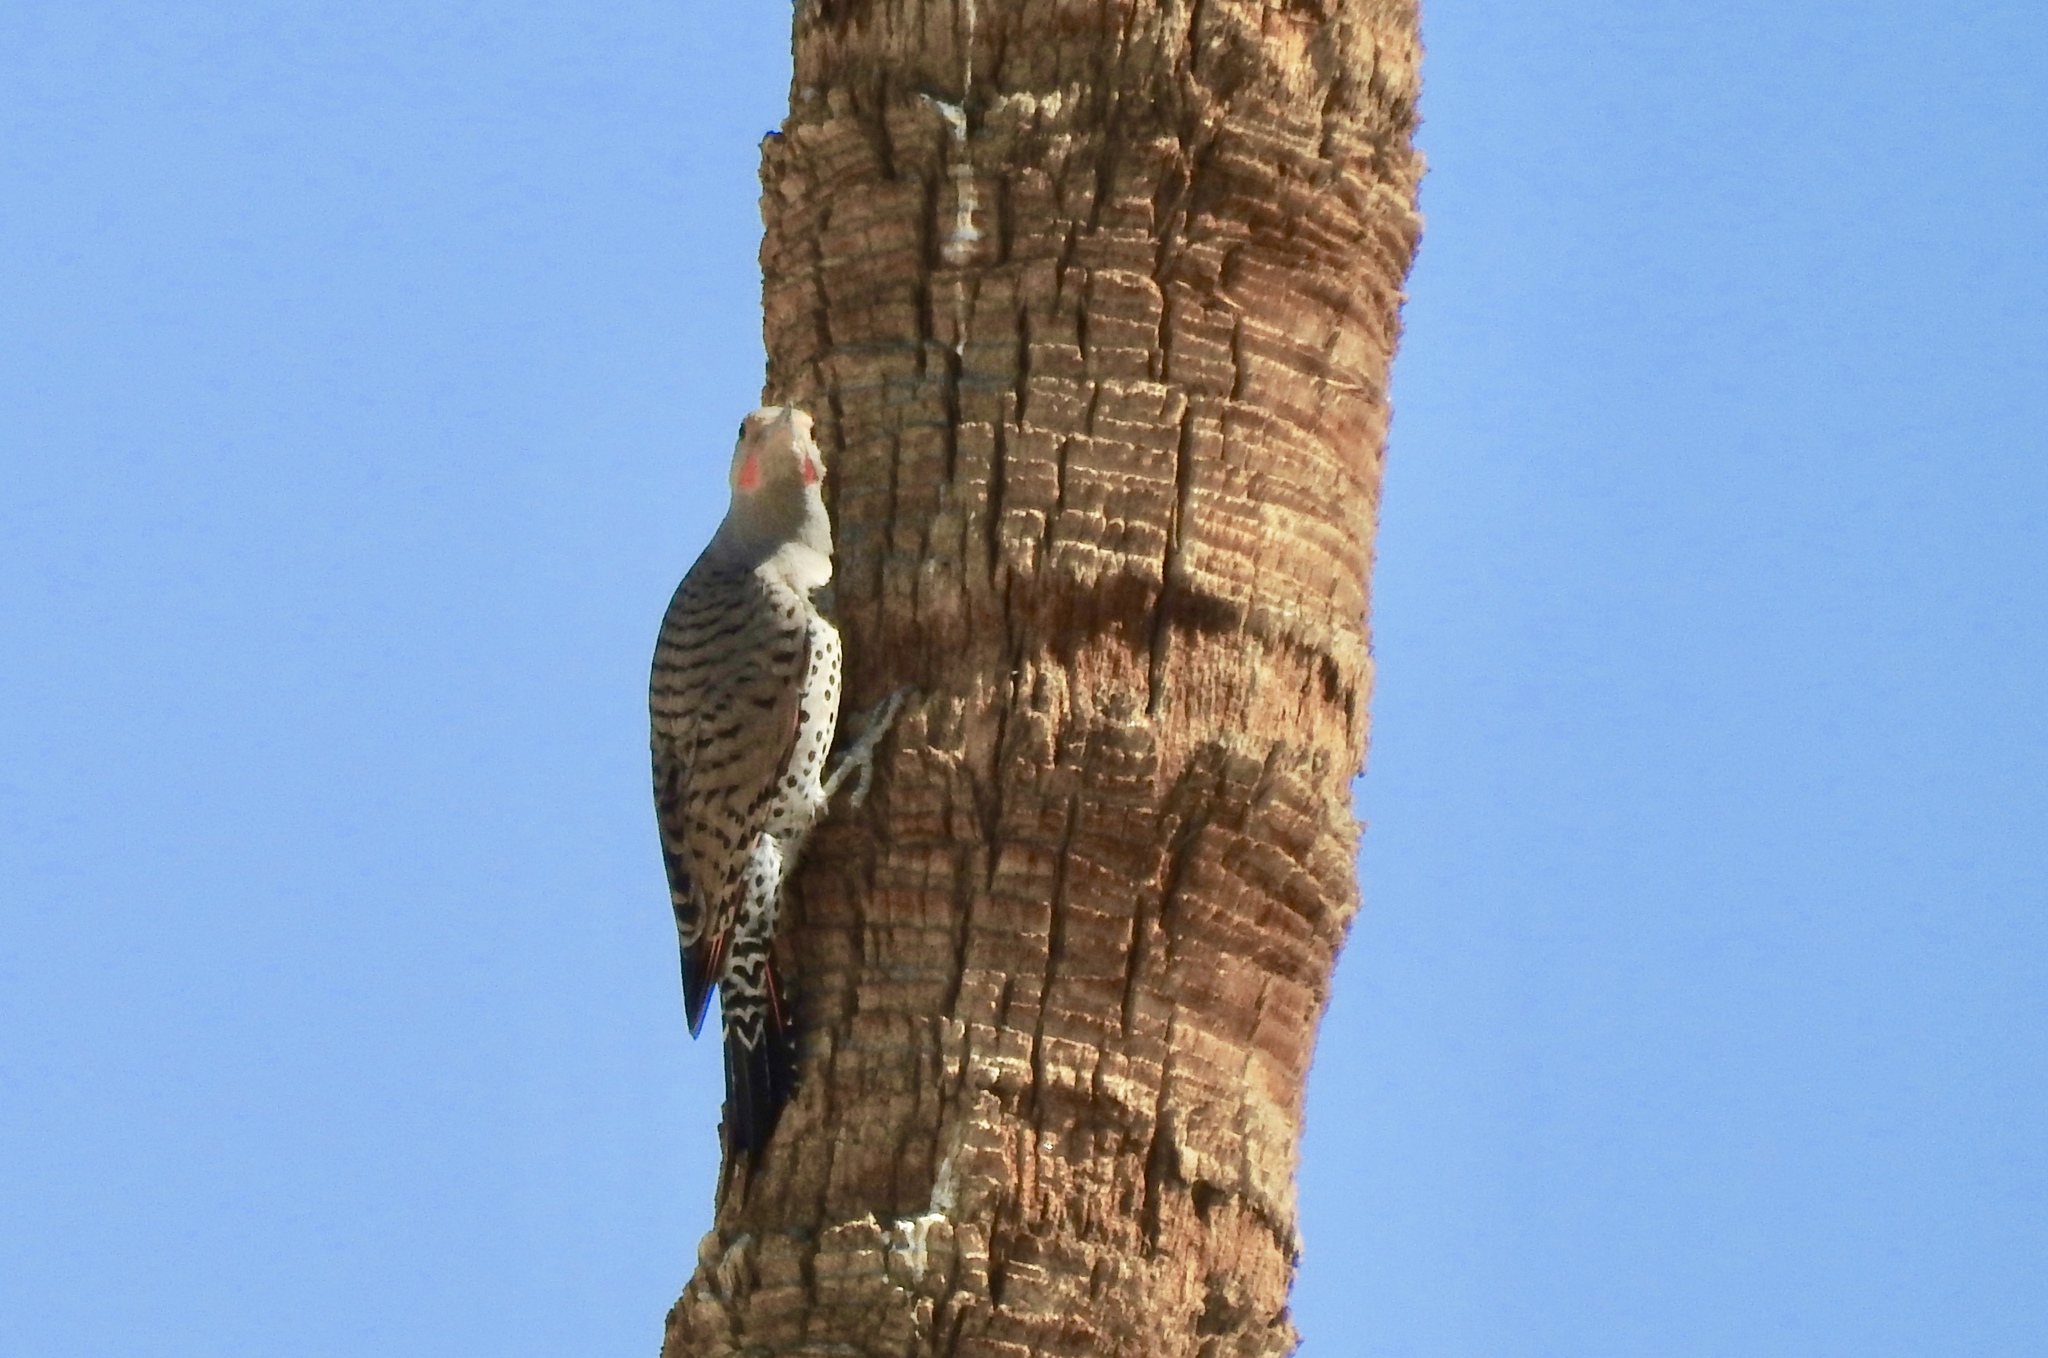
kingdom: Animalia
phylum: Chordata
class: Aves
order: Piciformes
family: Picidae
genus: Colaptes
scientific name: Colaptes auratus
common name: Northern flicker
